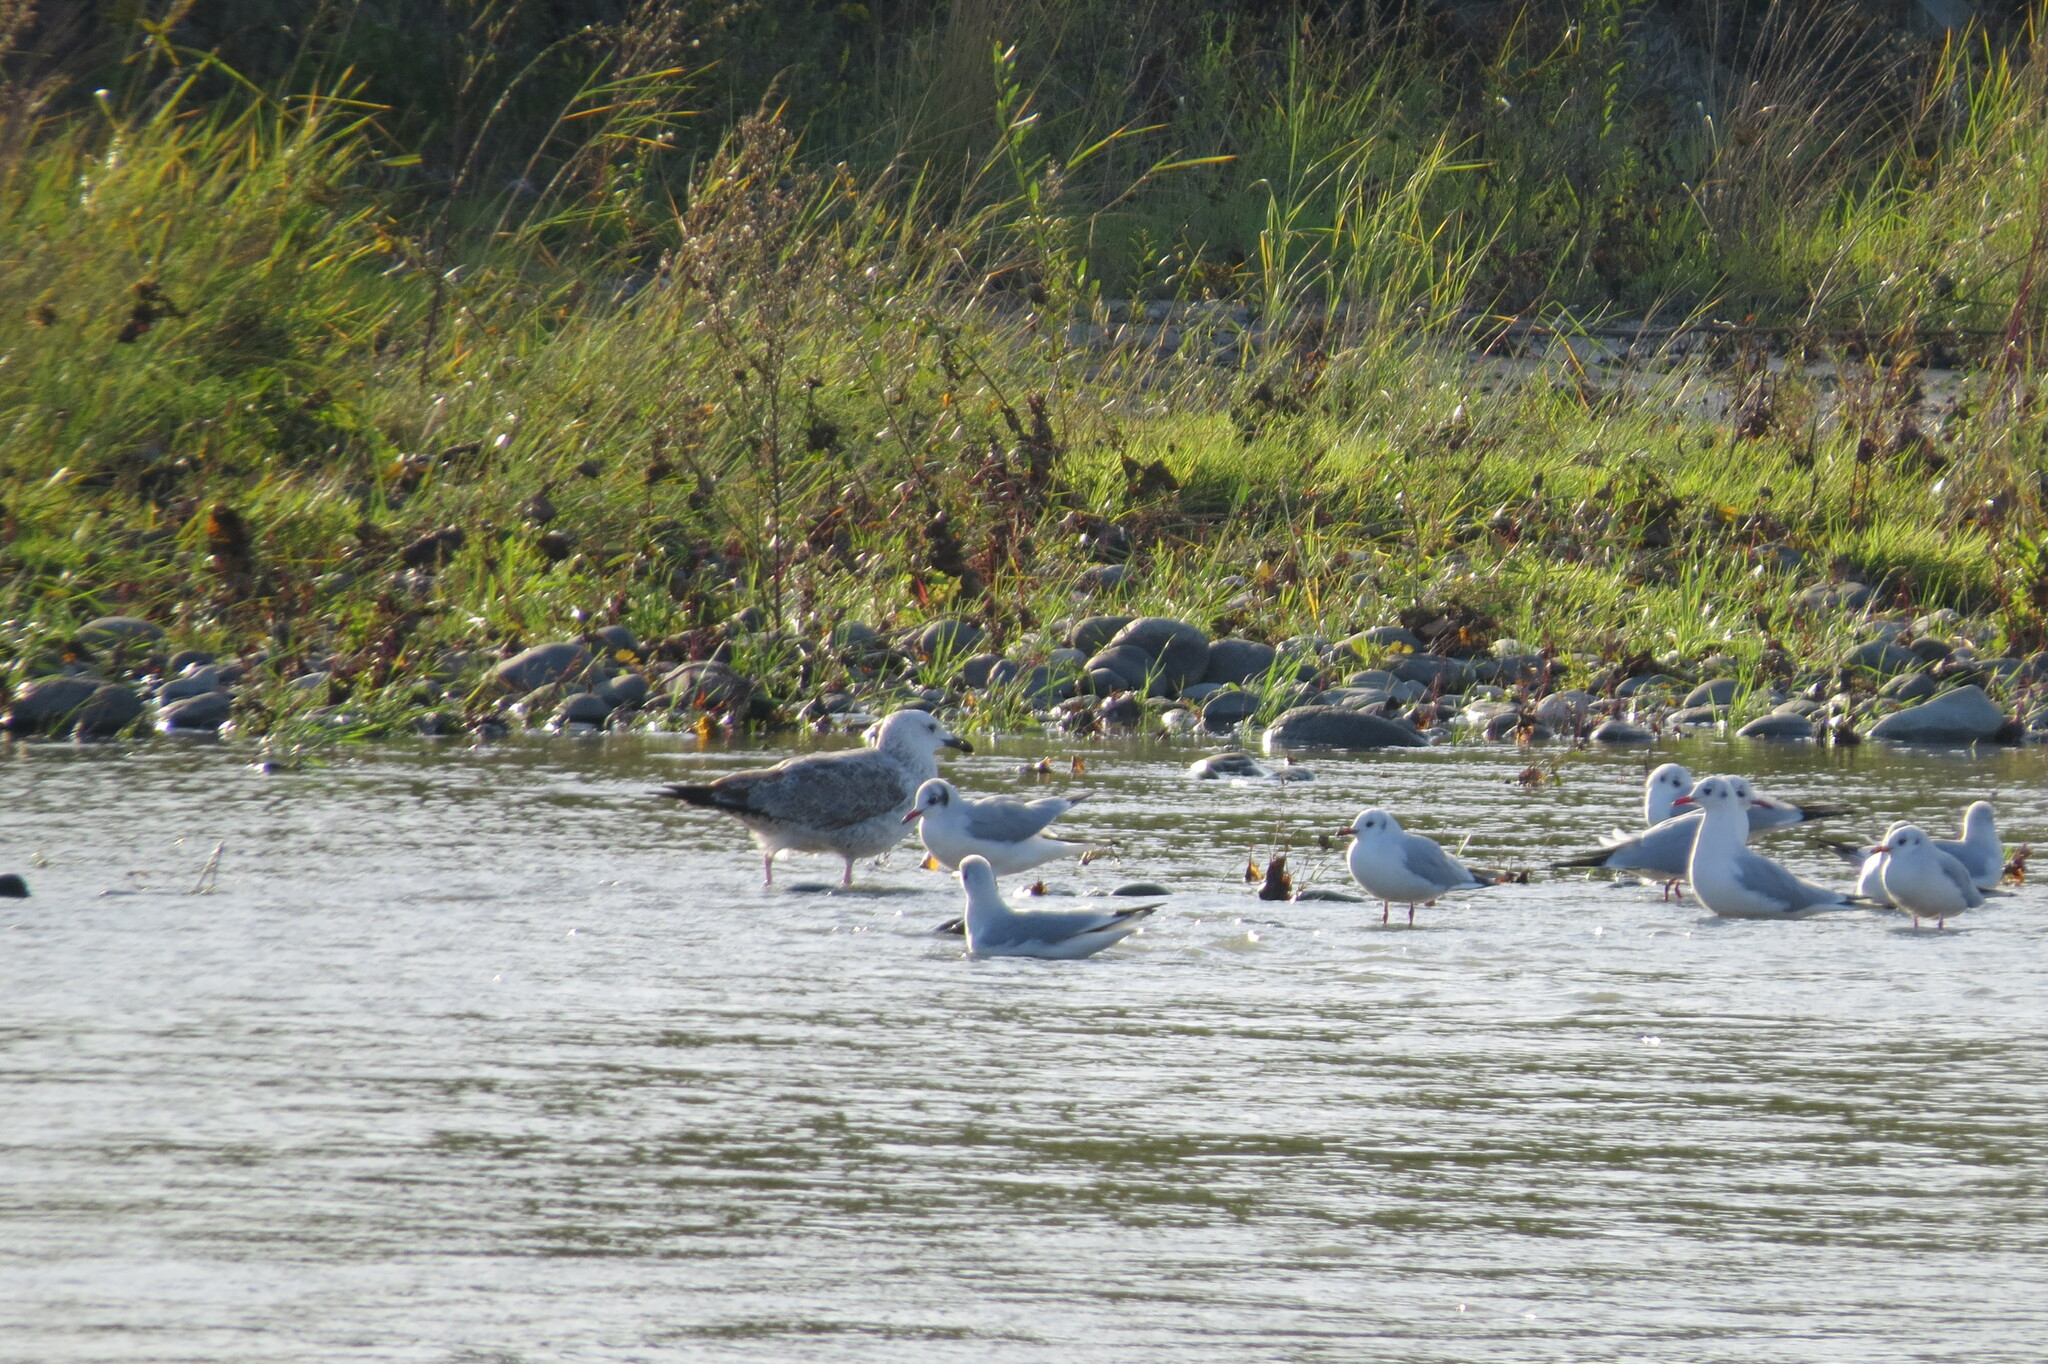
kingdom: Animalia
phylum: Chordata
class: Aves
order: Charadriiformes
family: Laridae
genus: Chroicocephalus
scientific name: Chroicocephalus ridibundus
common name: Black-headed gull
